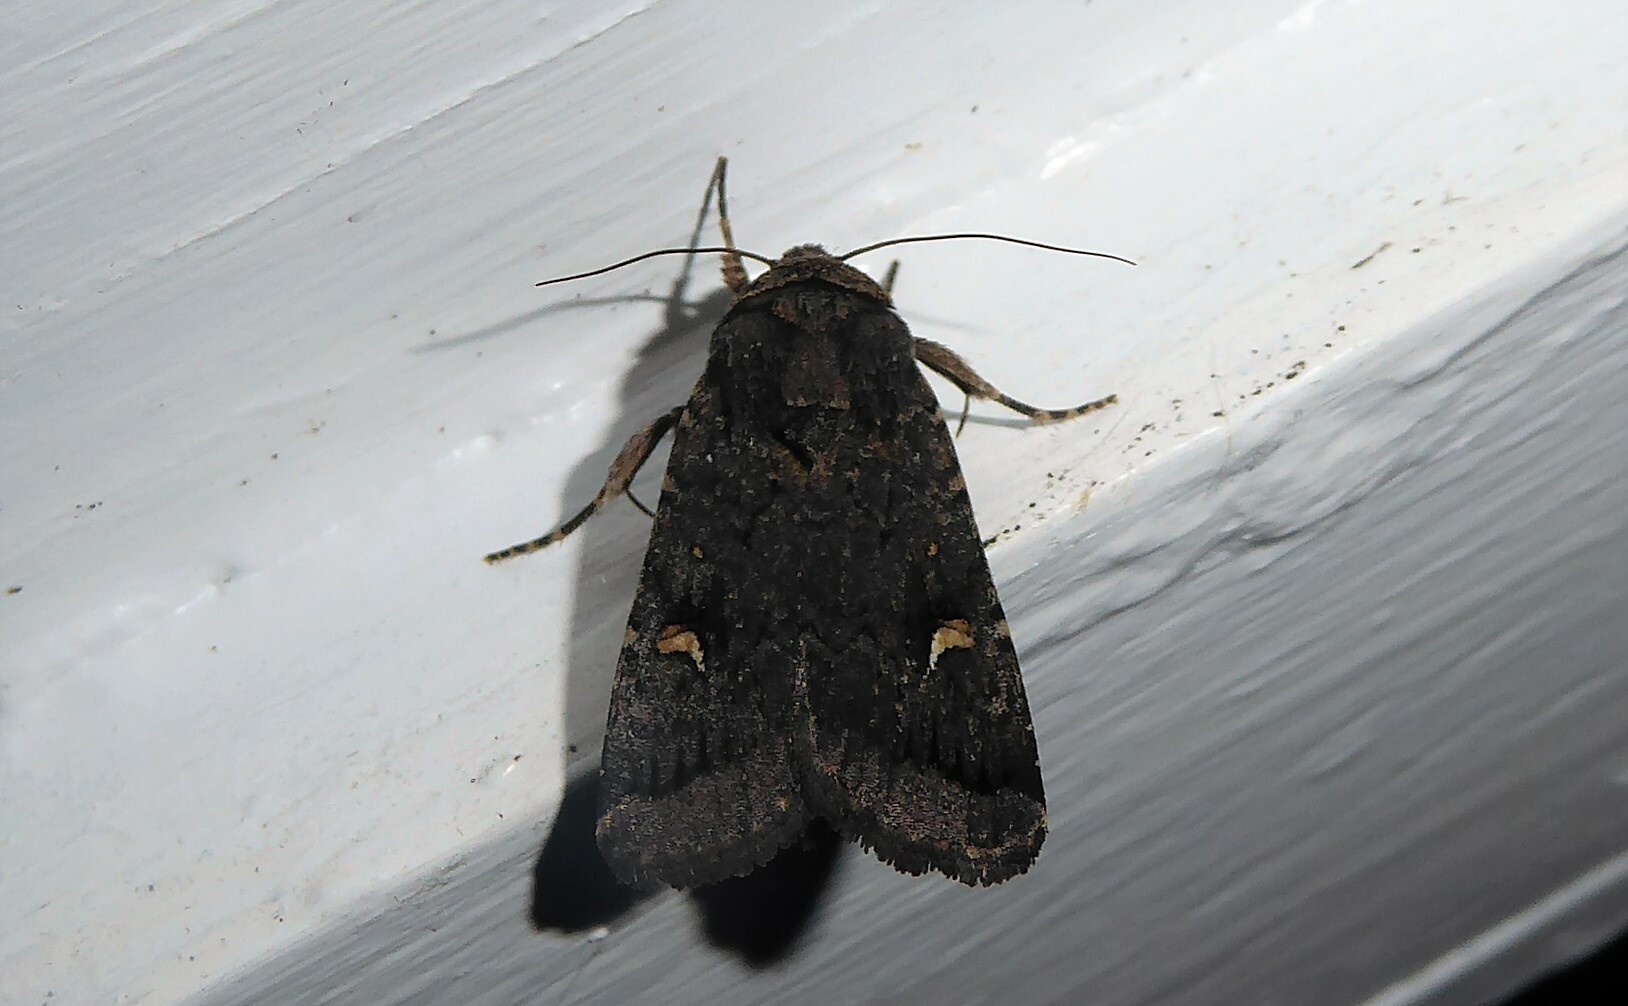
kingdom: Animalia
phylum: Arthropoda
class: Insecta
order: Lepidoptera
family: Noctuidae
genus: Proteuxoa
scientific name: Proteuxoa comma
